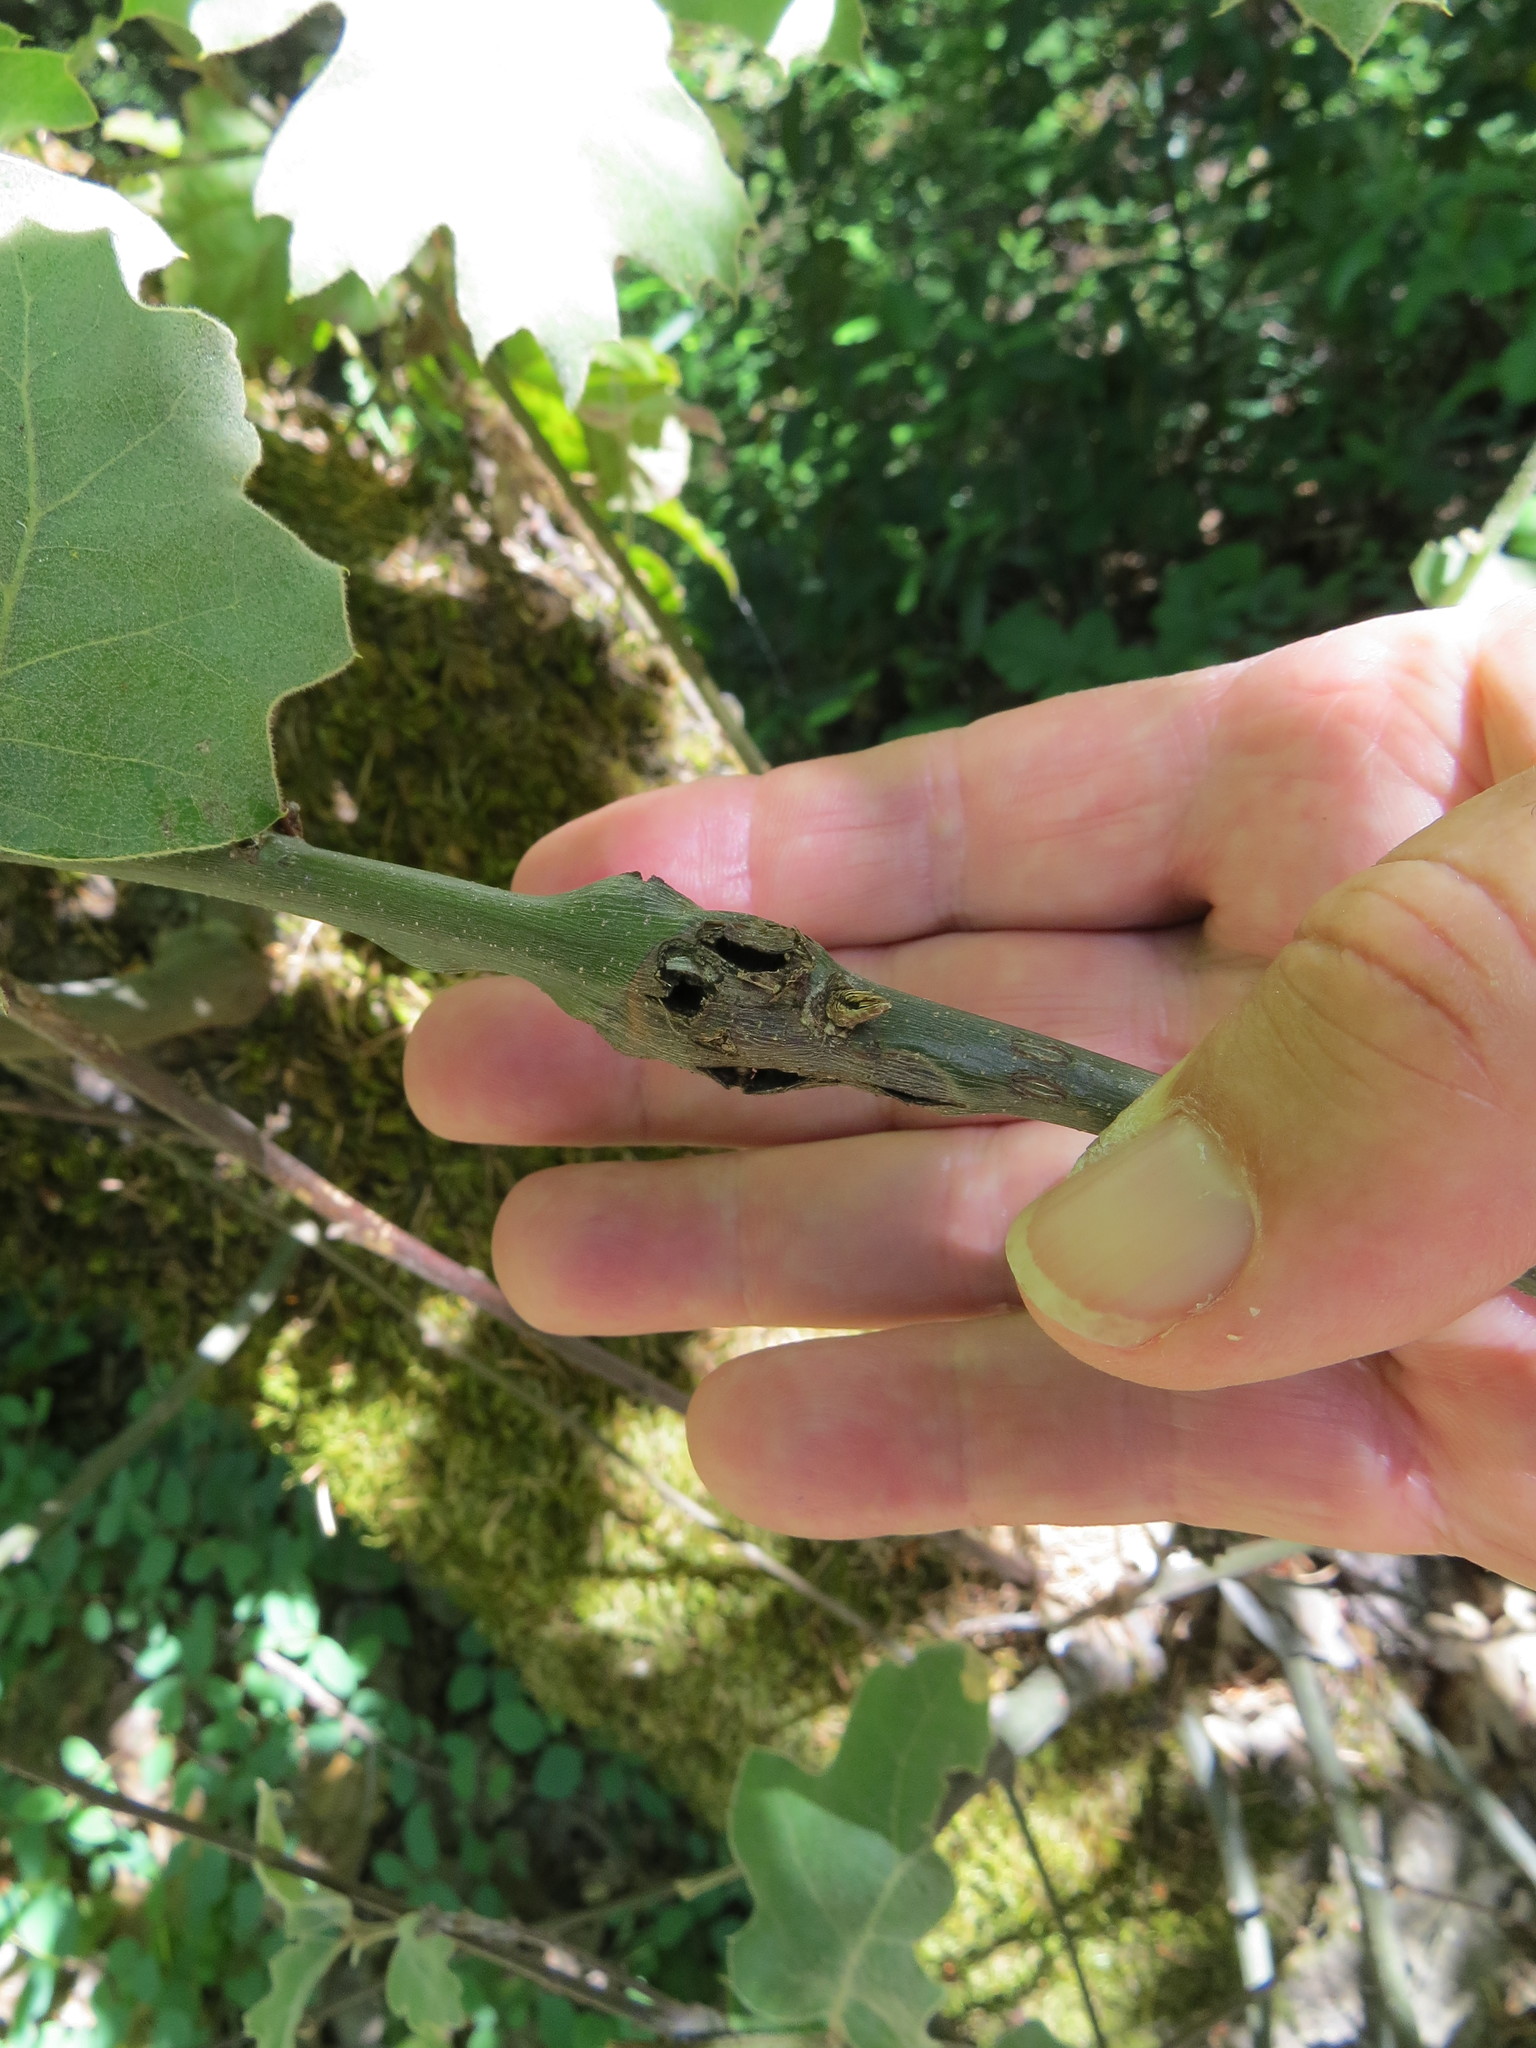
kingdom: Animalia
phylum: Arthropoda
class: Insecta
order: Hymenoptera
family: Cynipidae
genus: Callirhytis
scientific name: Callirhytis
